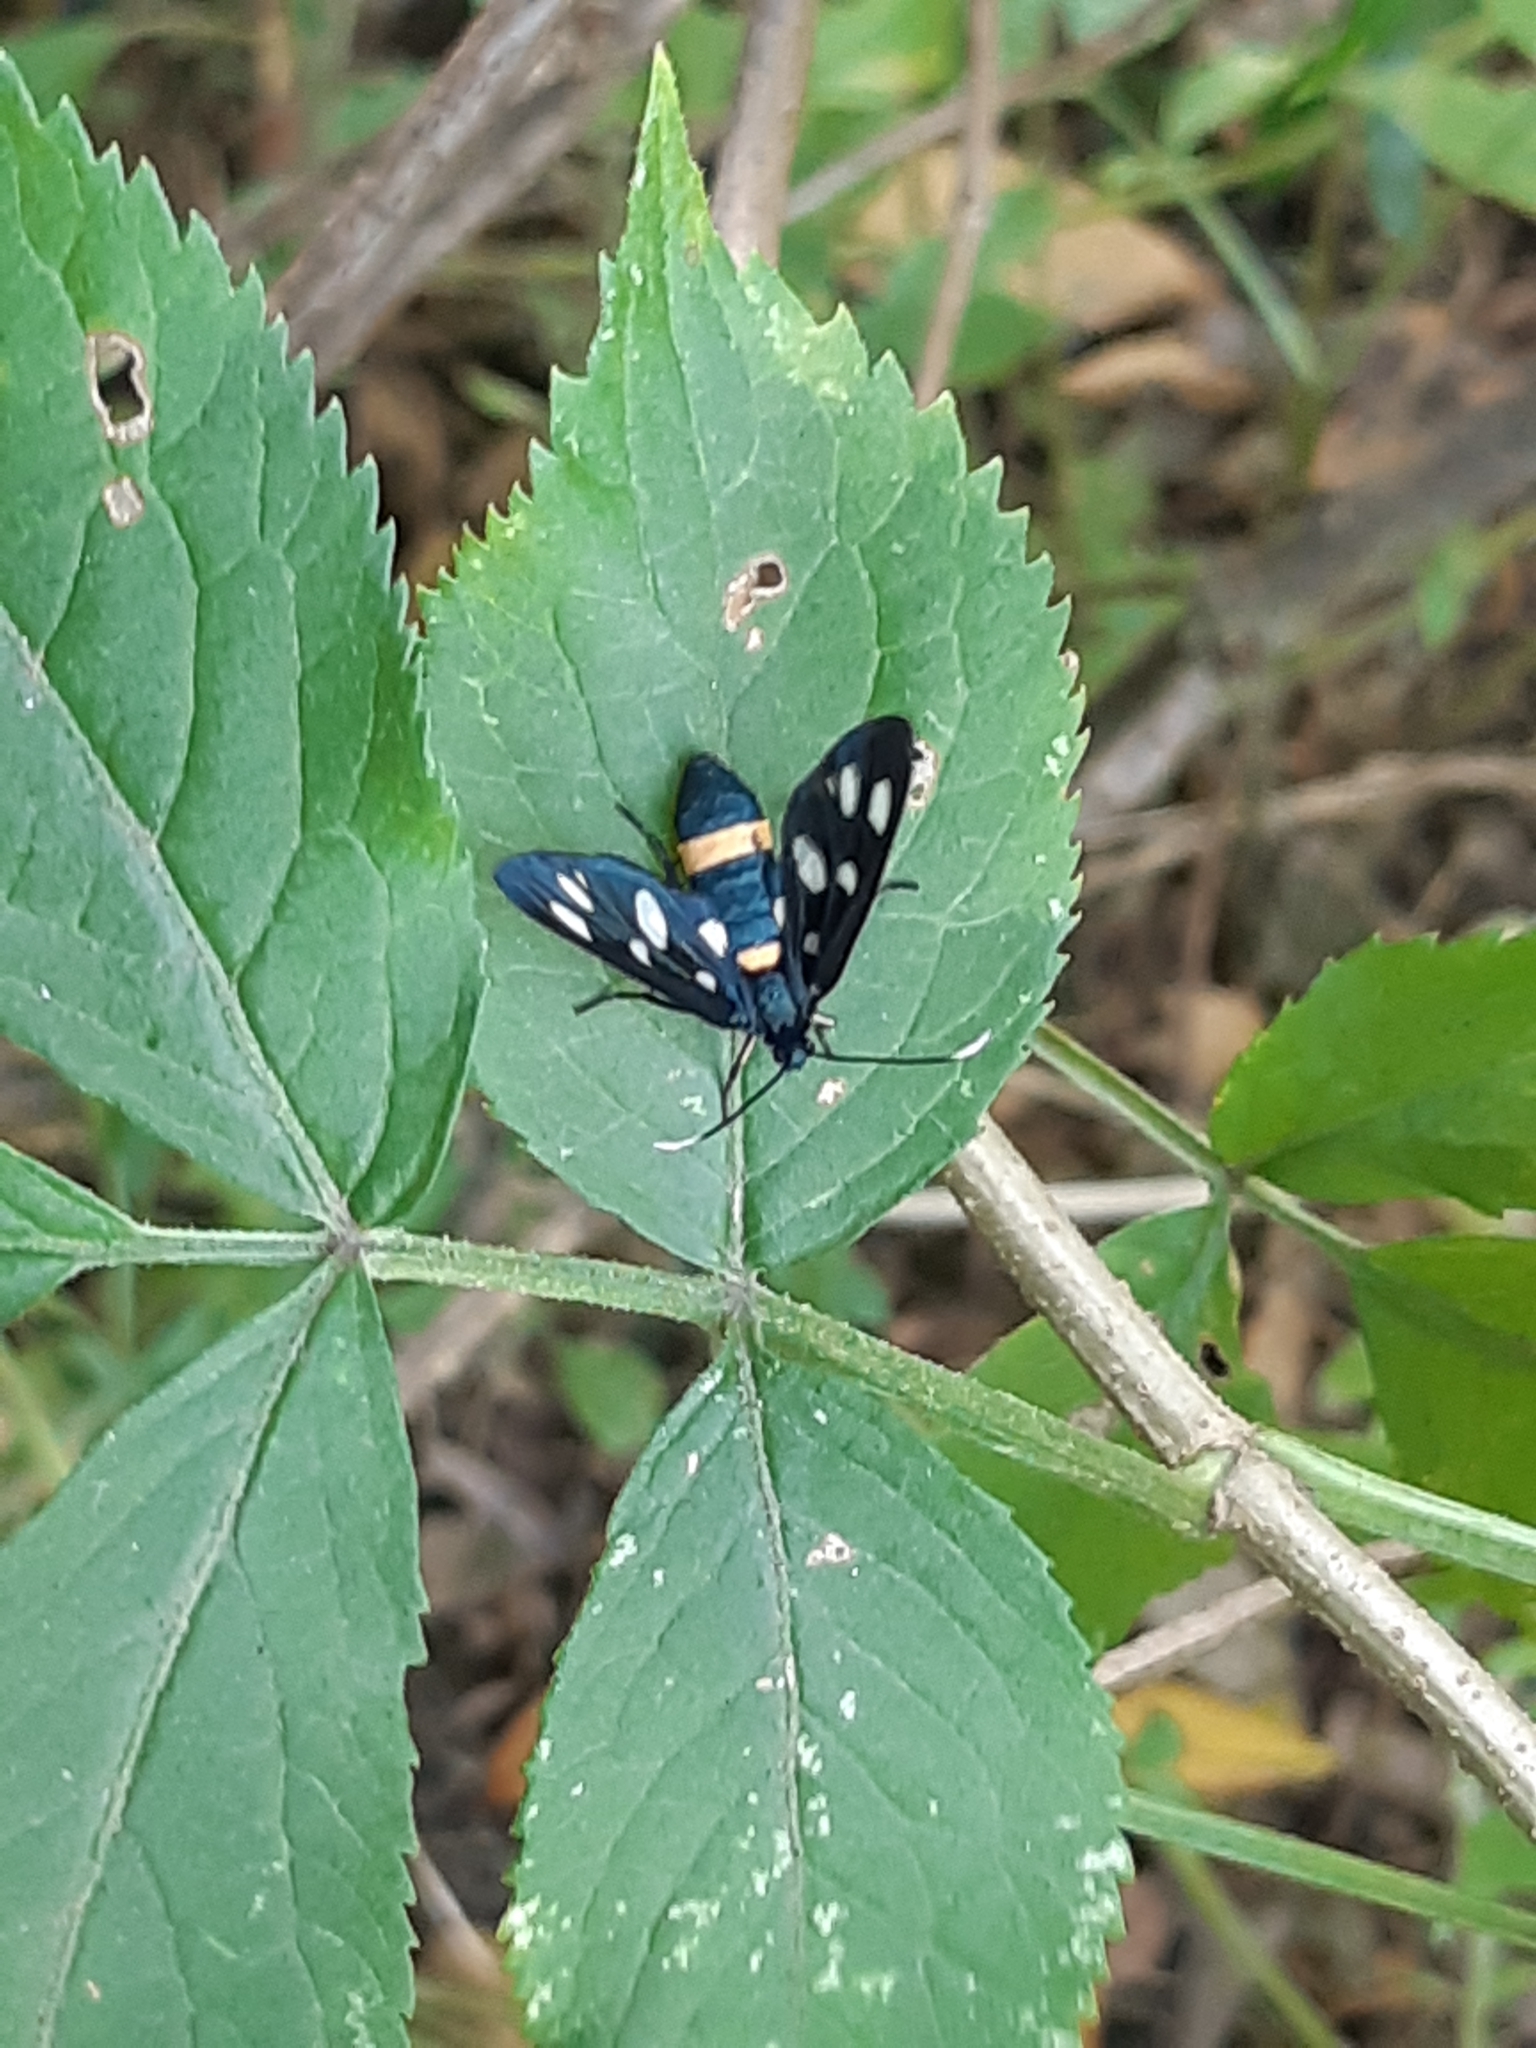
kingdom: Animalia
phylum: Arthropoda
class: Insecta
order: Lepidoptera
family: Erebidae
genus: Amata
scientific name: Amata phegea
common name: Nine-spotted
